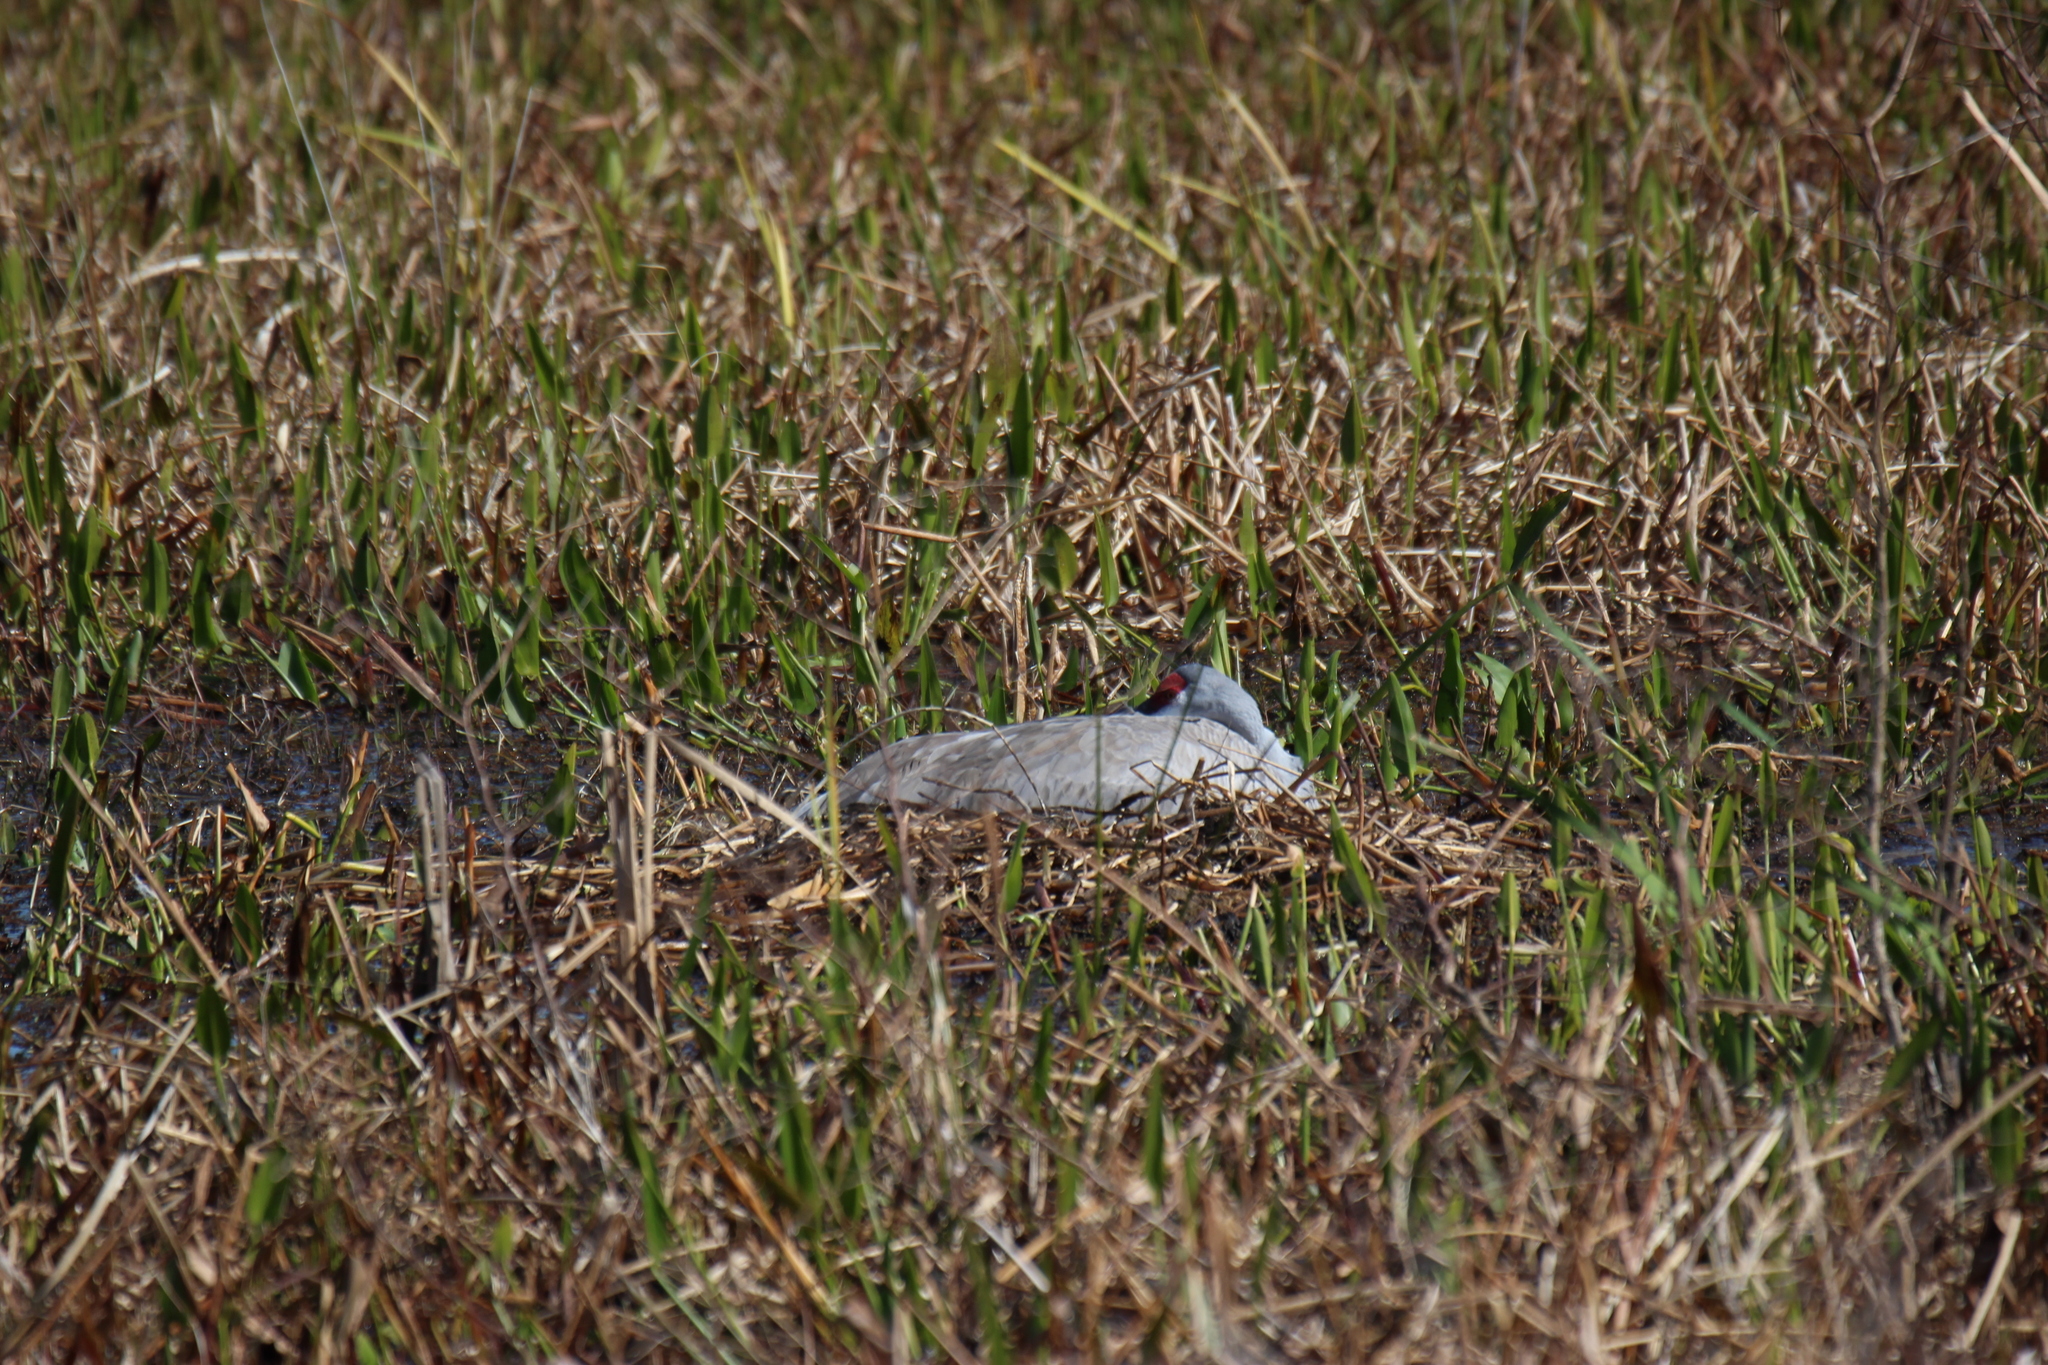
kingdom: Animalia
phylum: Chordata
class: Aves
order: Gruiformes
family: Gruidae
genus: Grus
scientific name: Grus canadensis
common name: Sandhill crane
